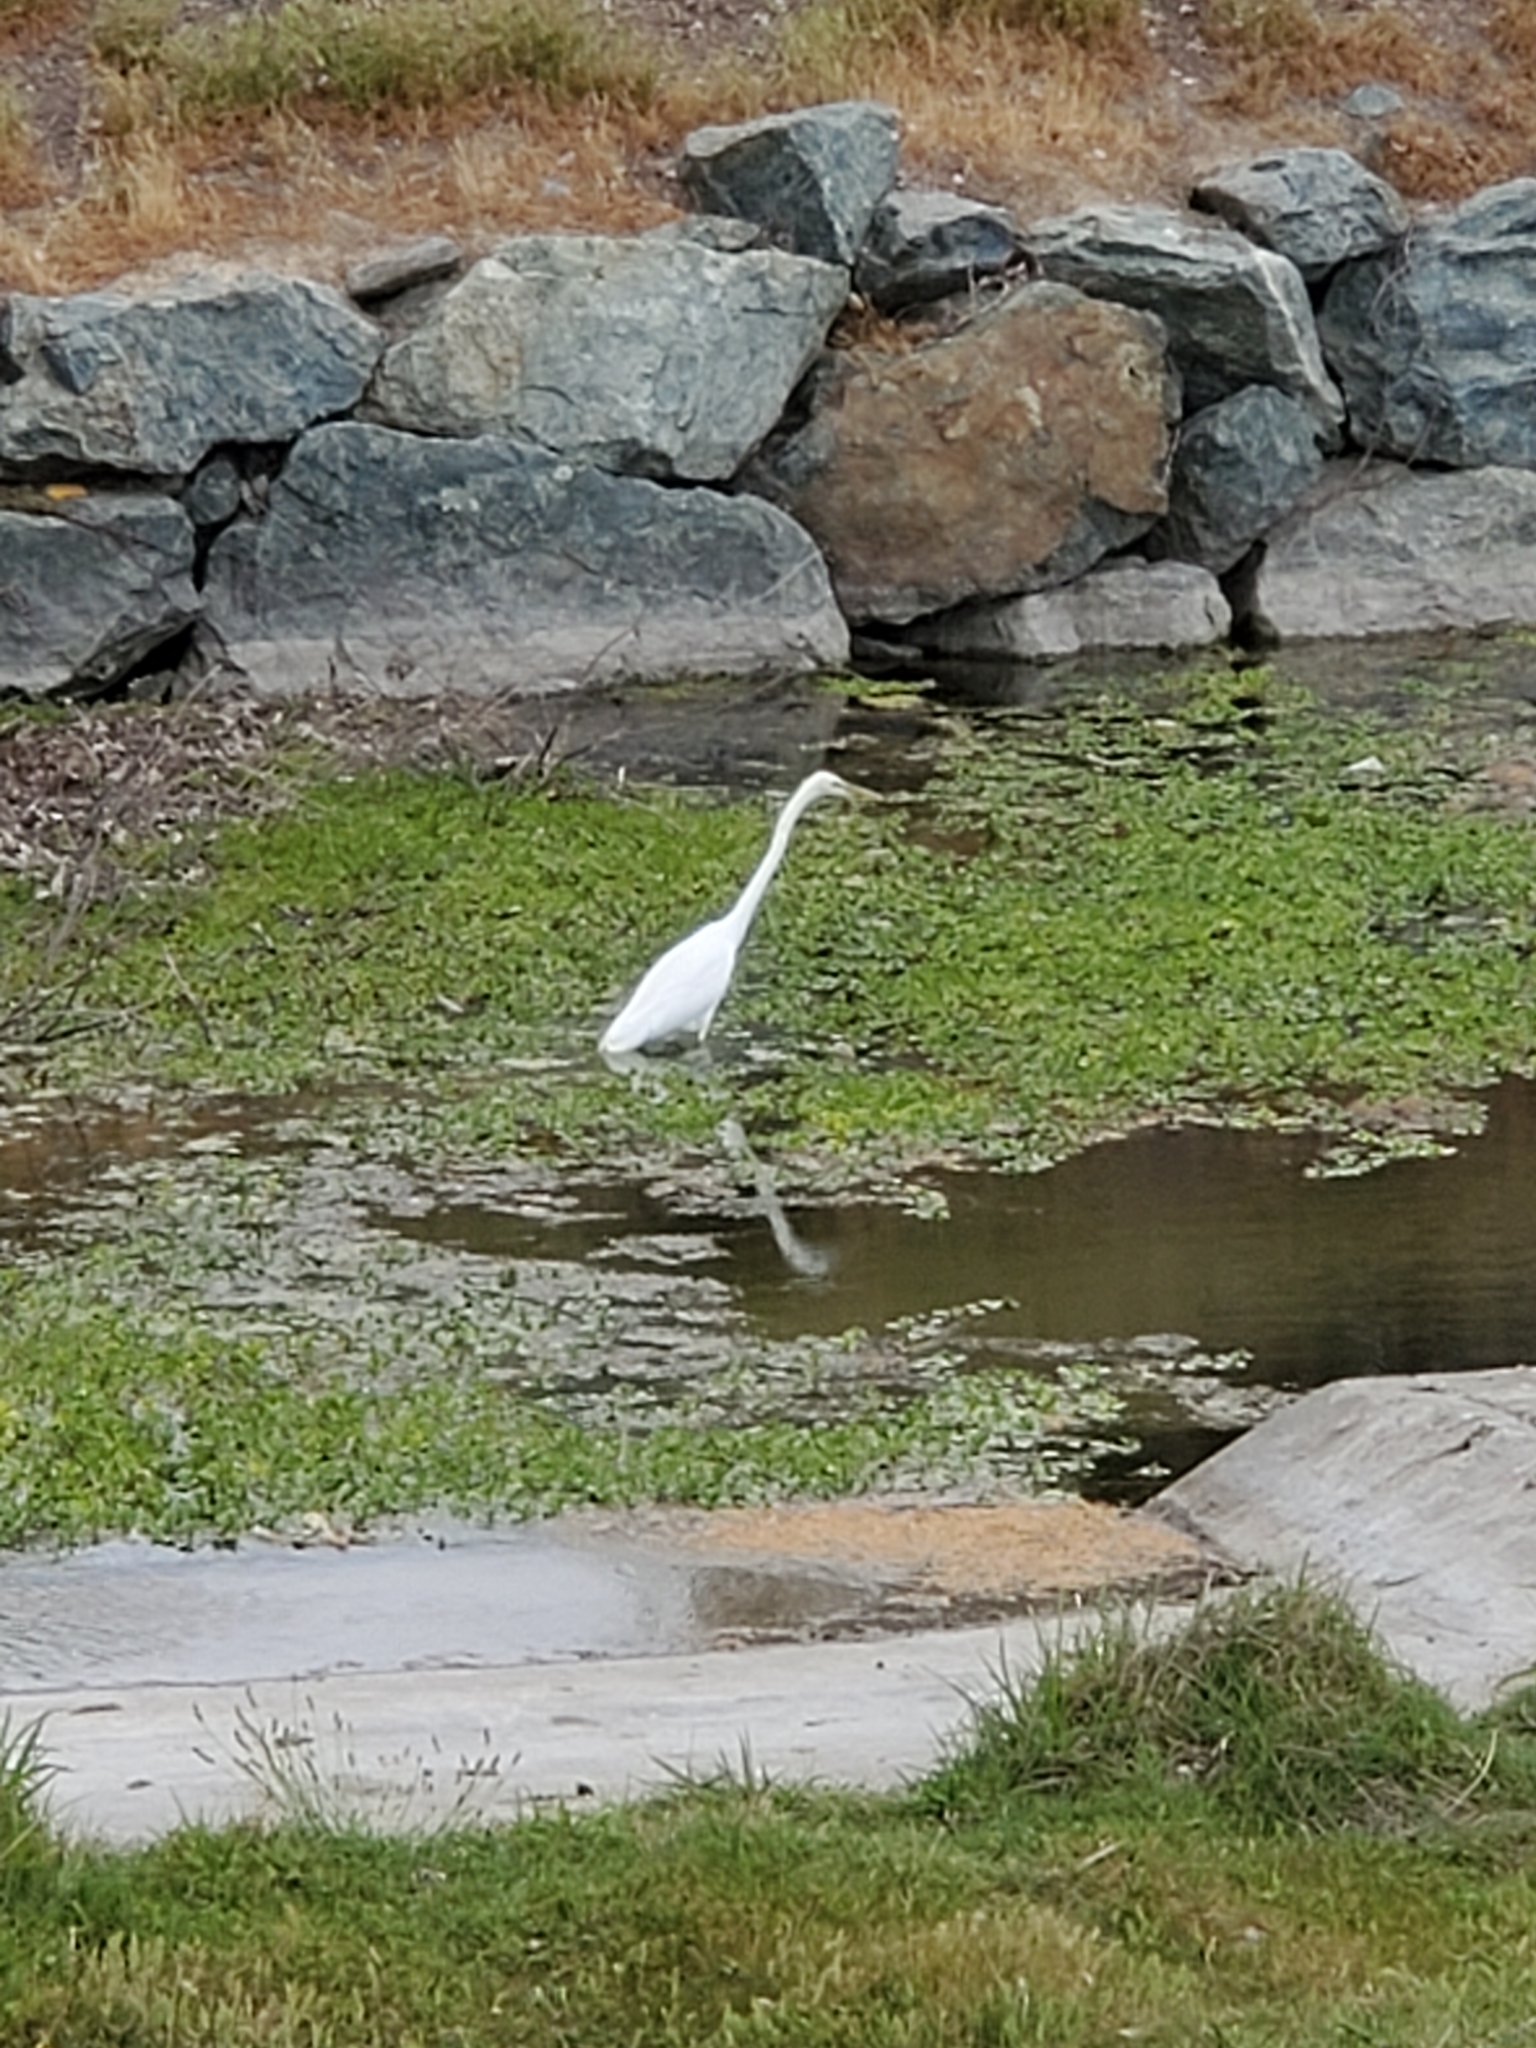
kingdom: Animalia
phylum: Chordata
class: Aves
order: Pelecaniformes
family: Ardeidae
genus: Ardea
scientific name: Ardea alba
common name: Great egret
